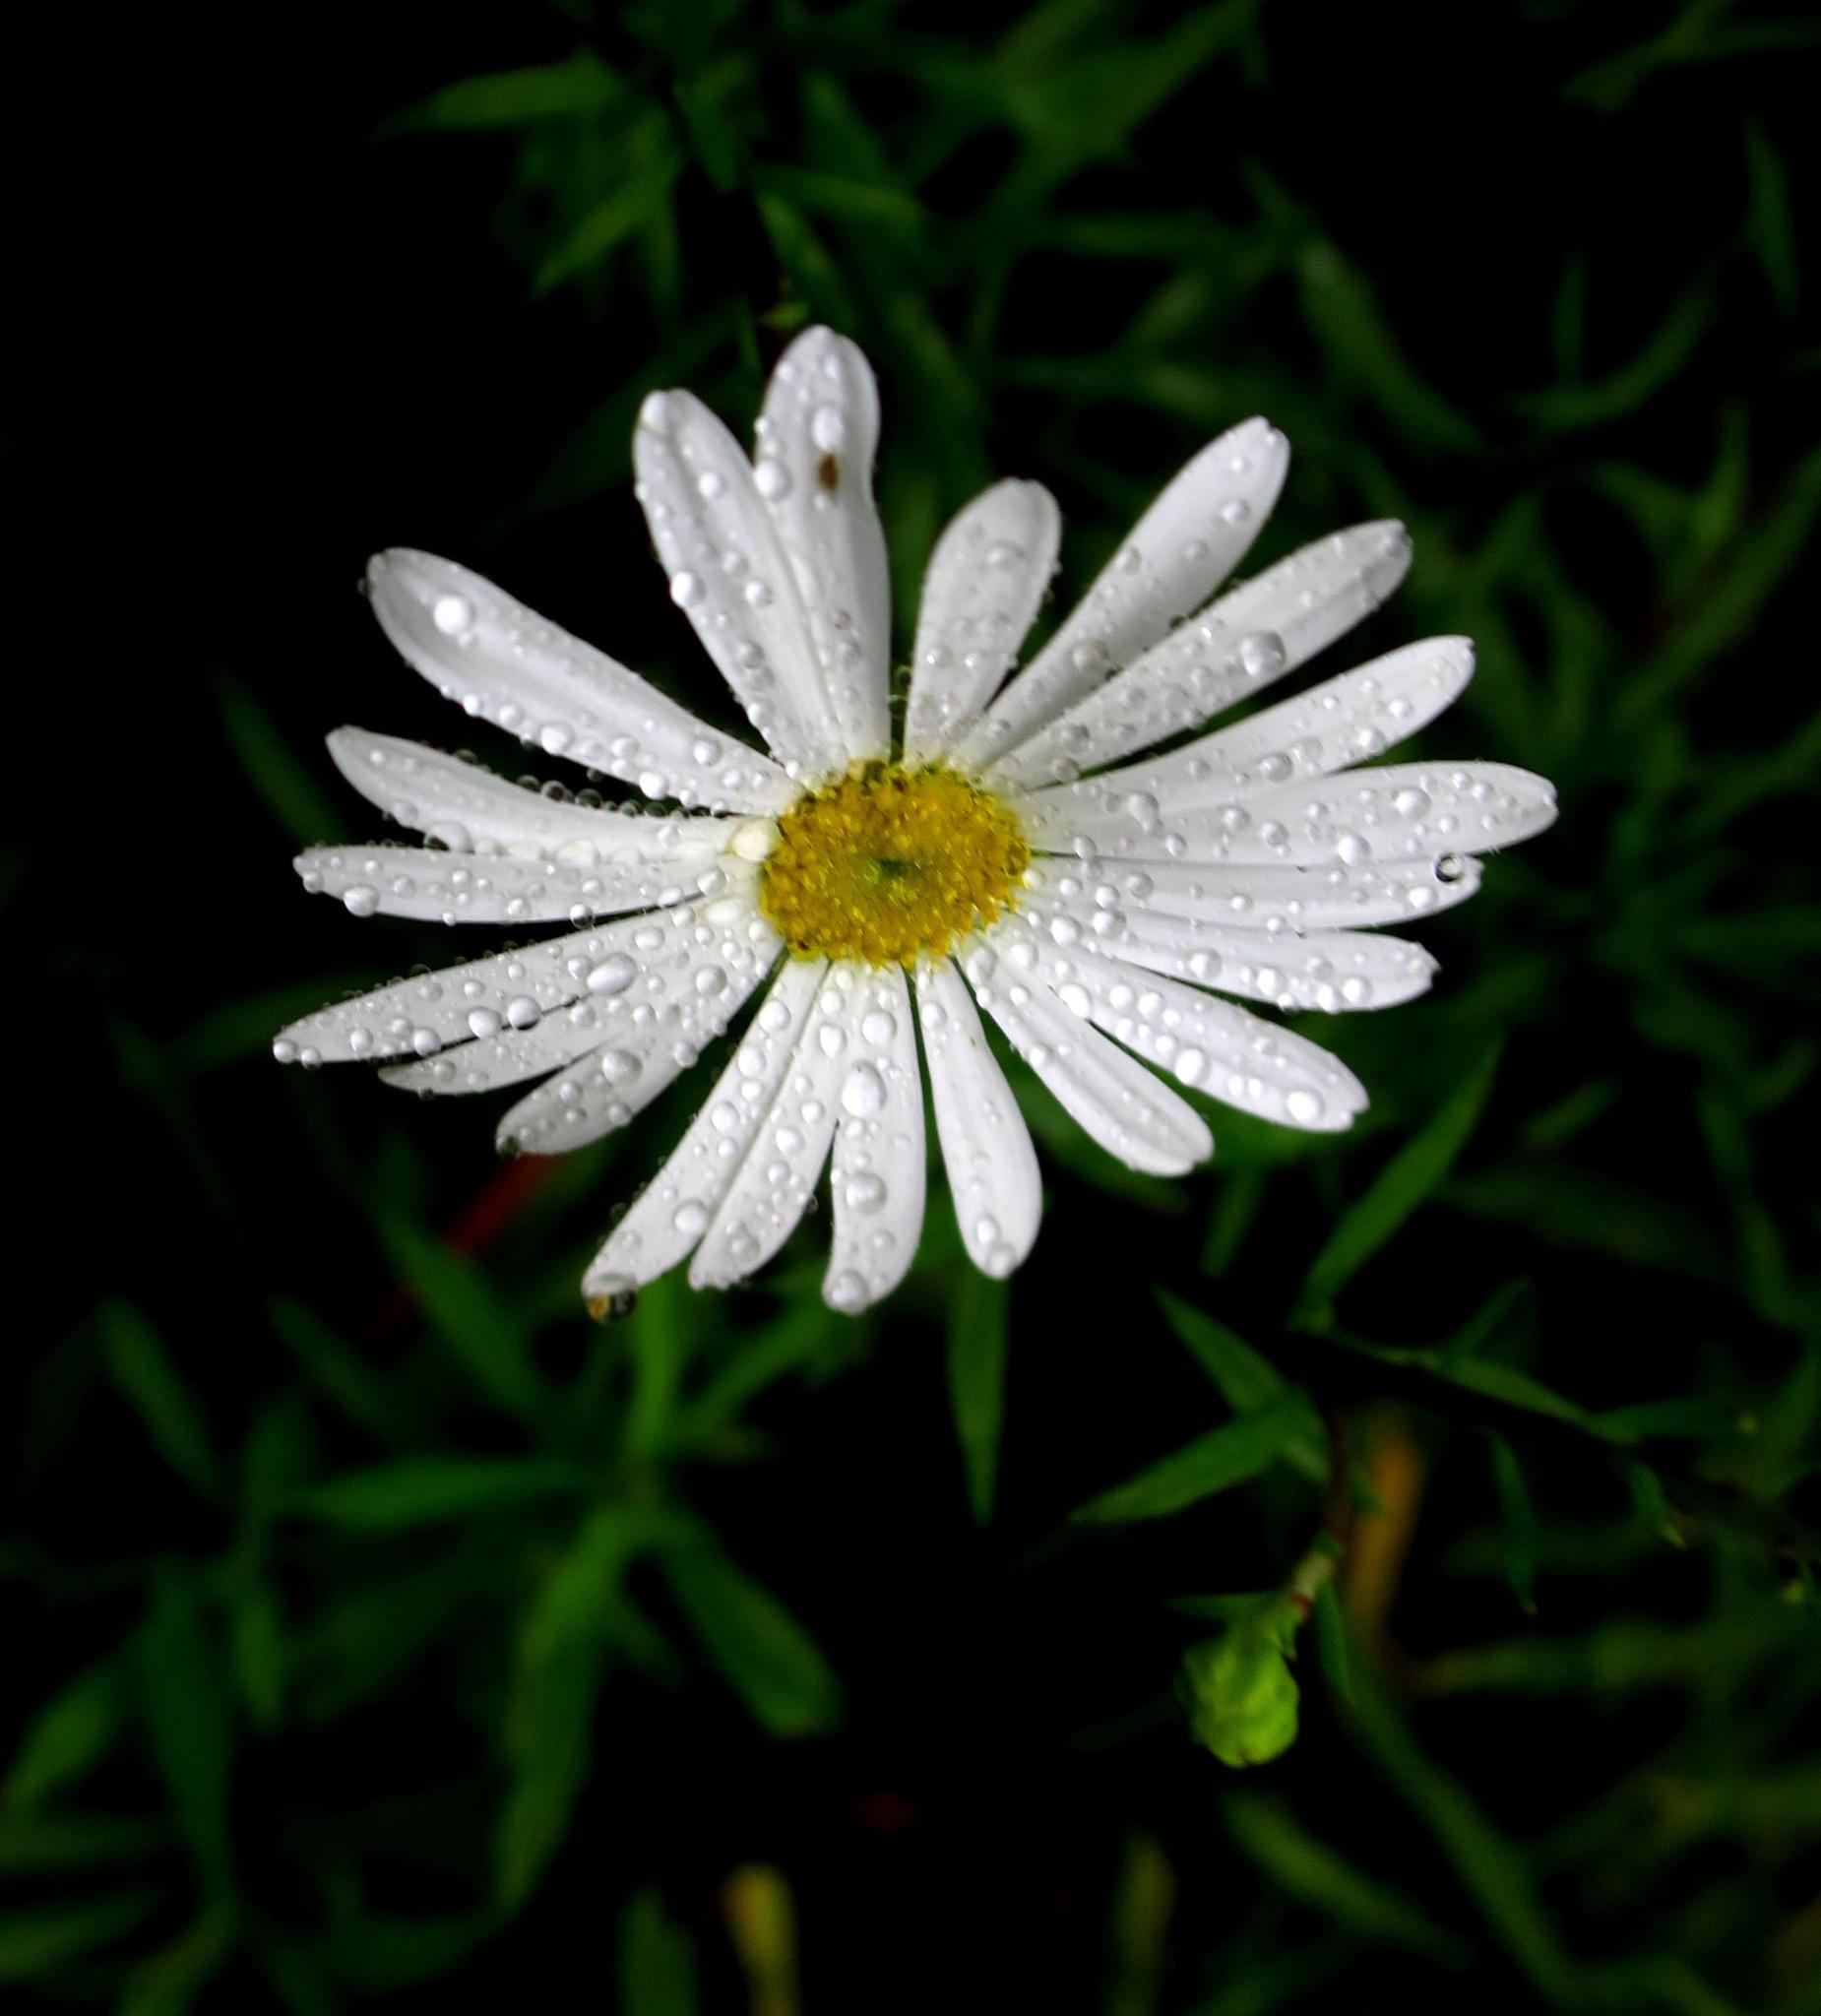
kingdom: Plantae
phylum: Tracheophyta
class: Magnoliopsida
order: Asterales
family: Asteraceae
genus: Osmitopsis
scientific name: Osmitopsis osmitoides
